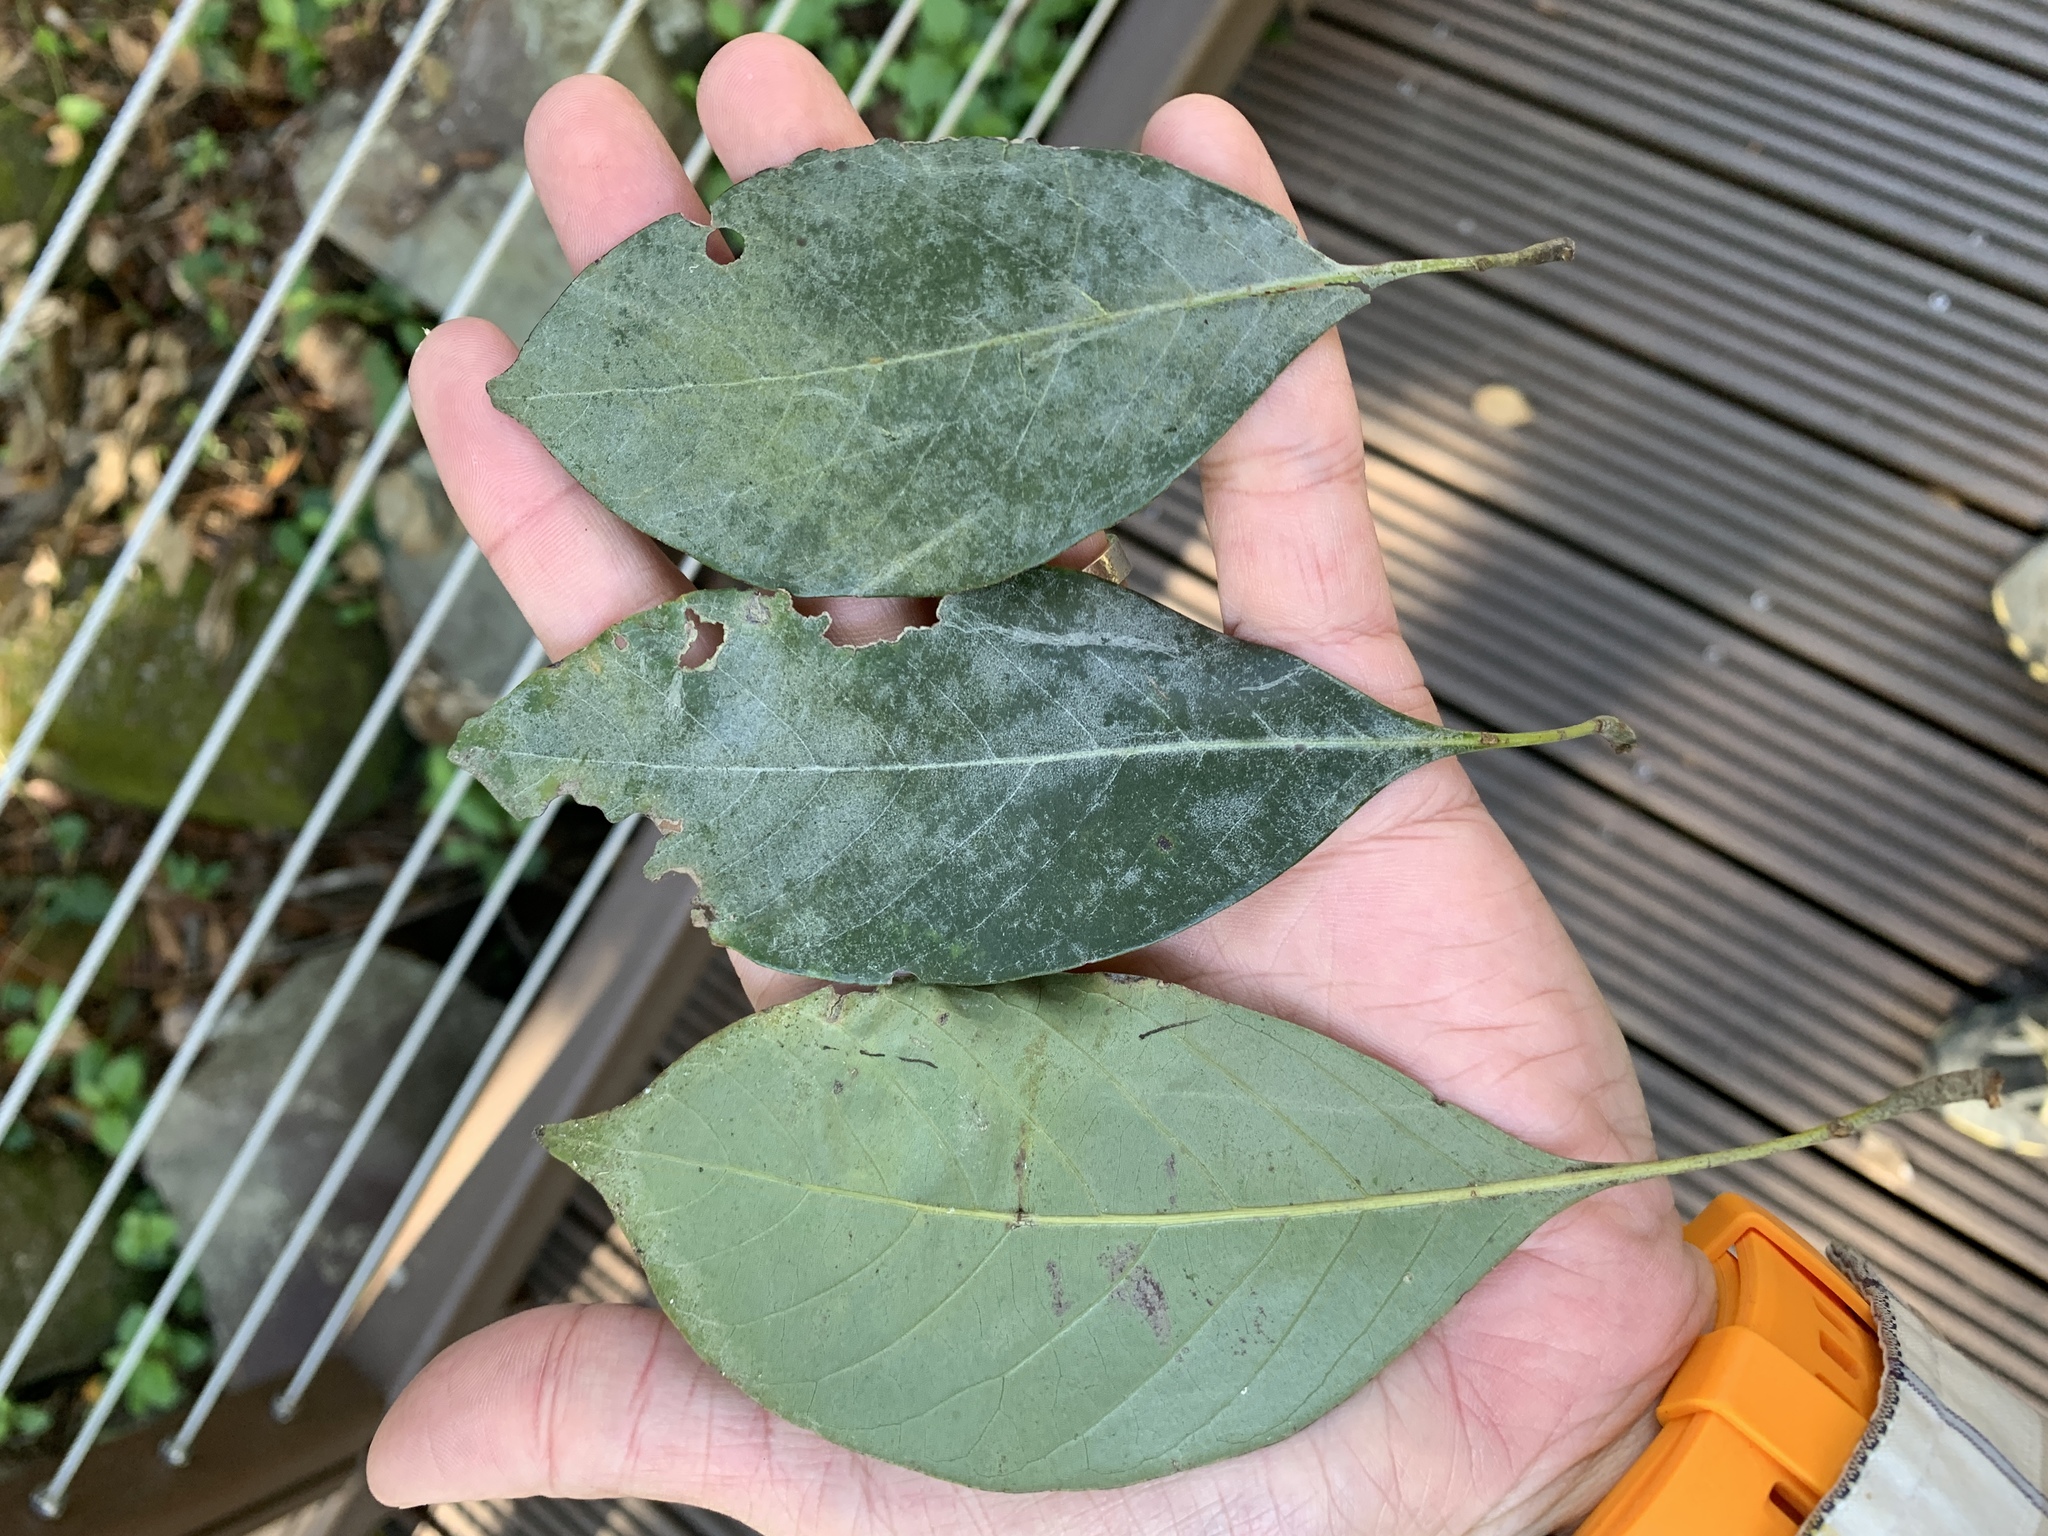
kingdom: Plantae
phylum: Tracheophyta
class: Magnoliopsida
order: Fagales
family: Fagaceae
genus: Lithocarpus
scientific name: Lithocarpus taitoensis
